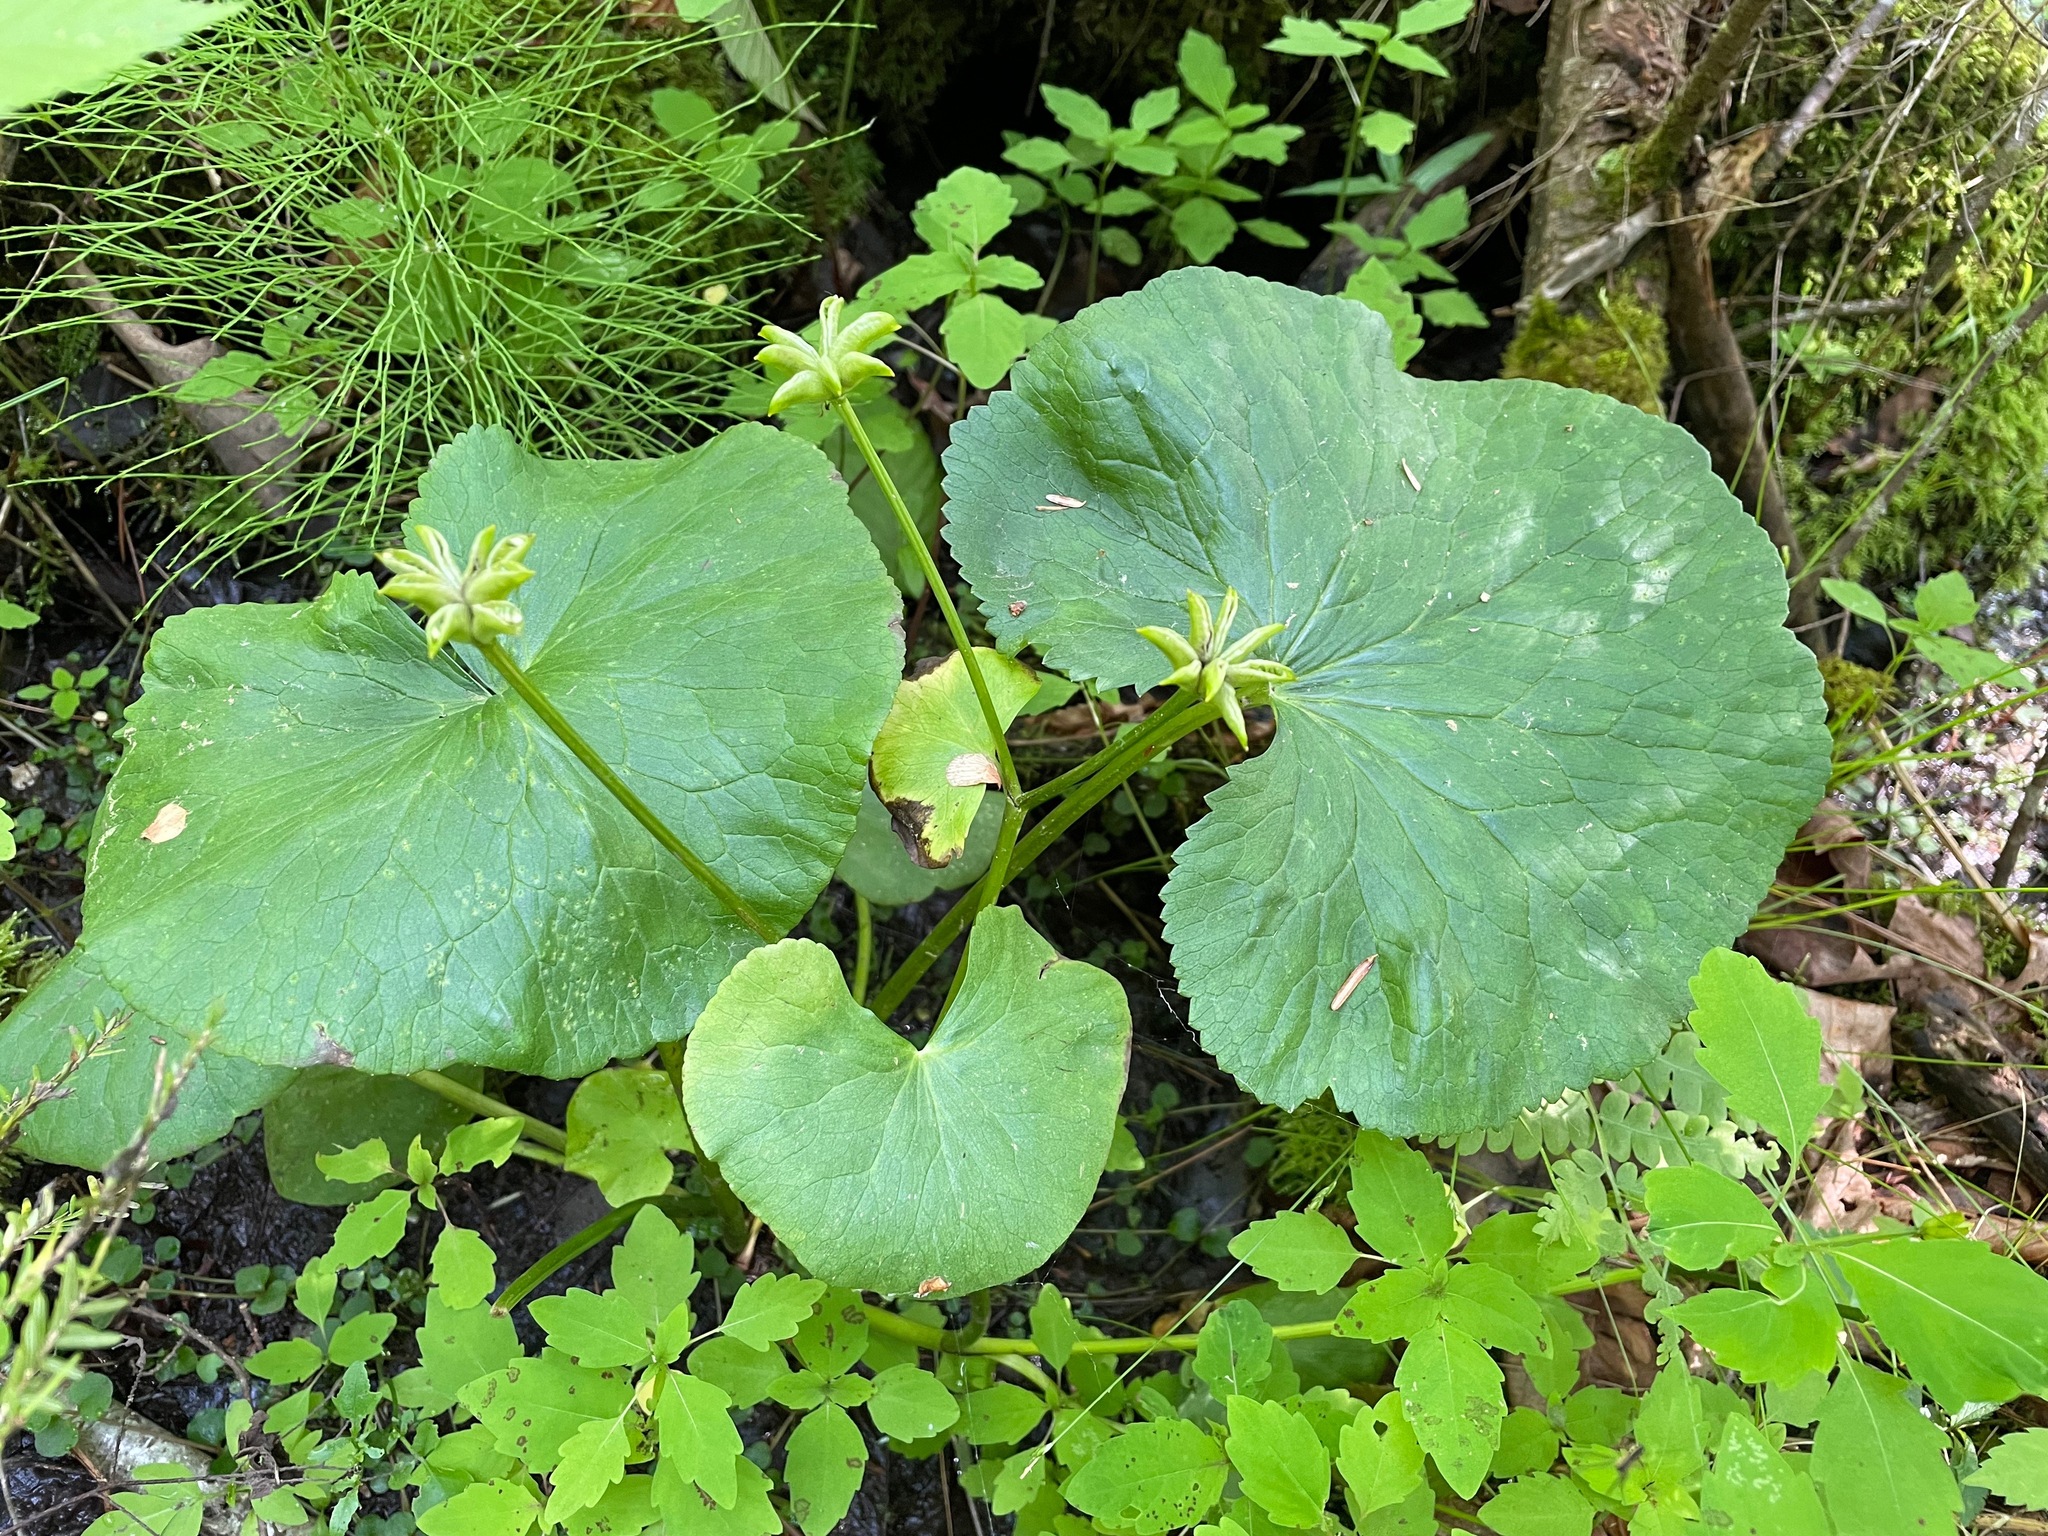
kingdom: Plantae
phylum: Tracheophyta
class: Magnoliopsida
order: Ranunculales
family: Ranunculaceae
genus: Caltha
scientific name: Caltha palustris
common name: Marsh marigold
